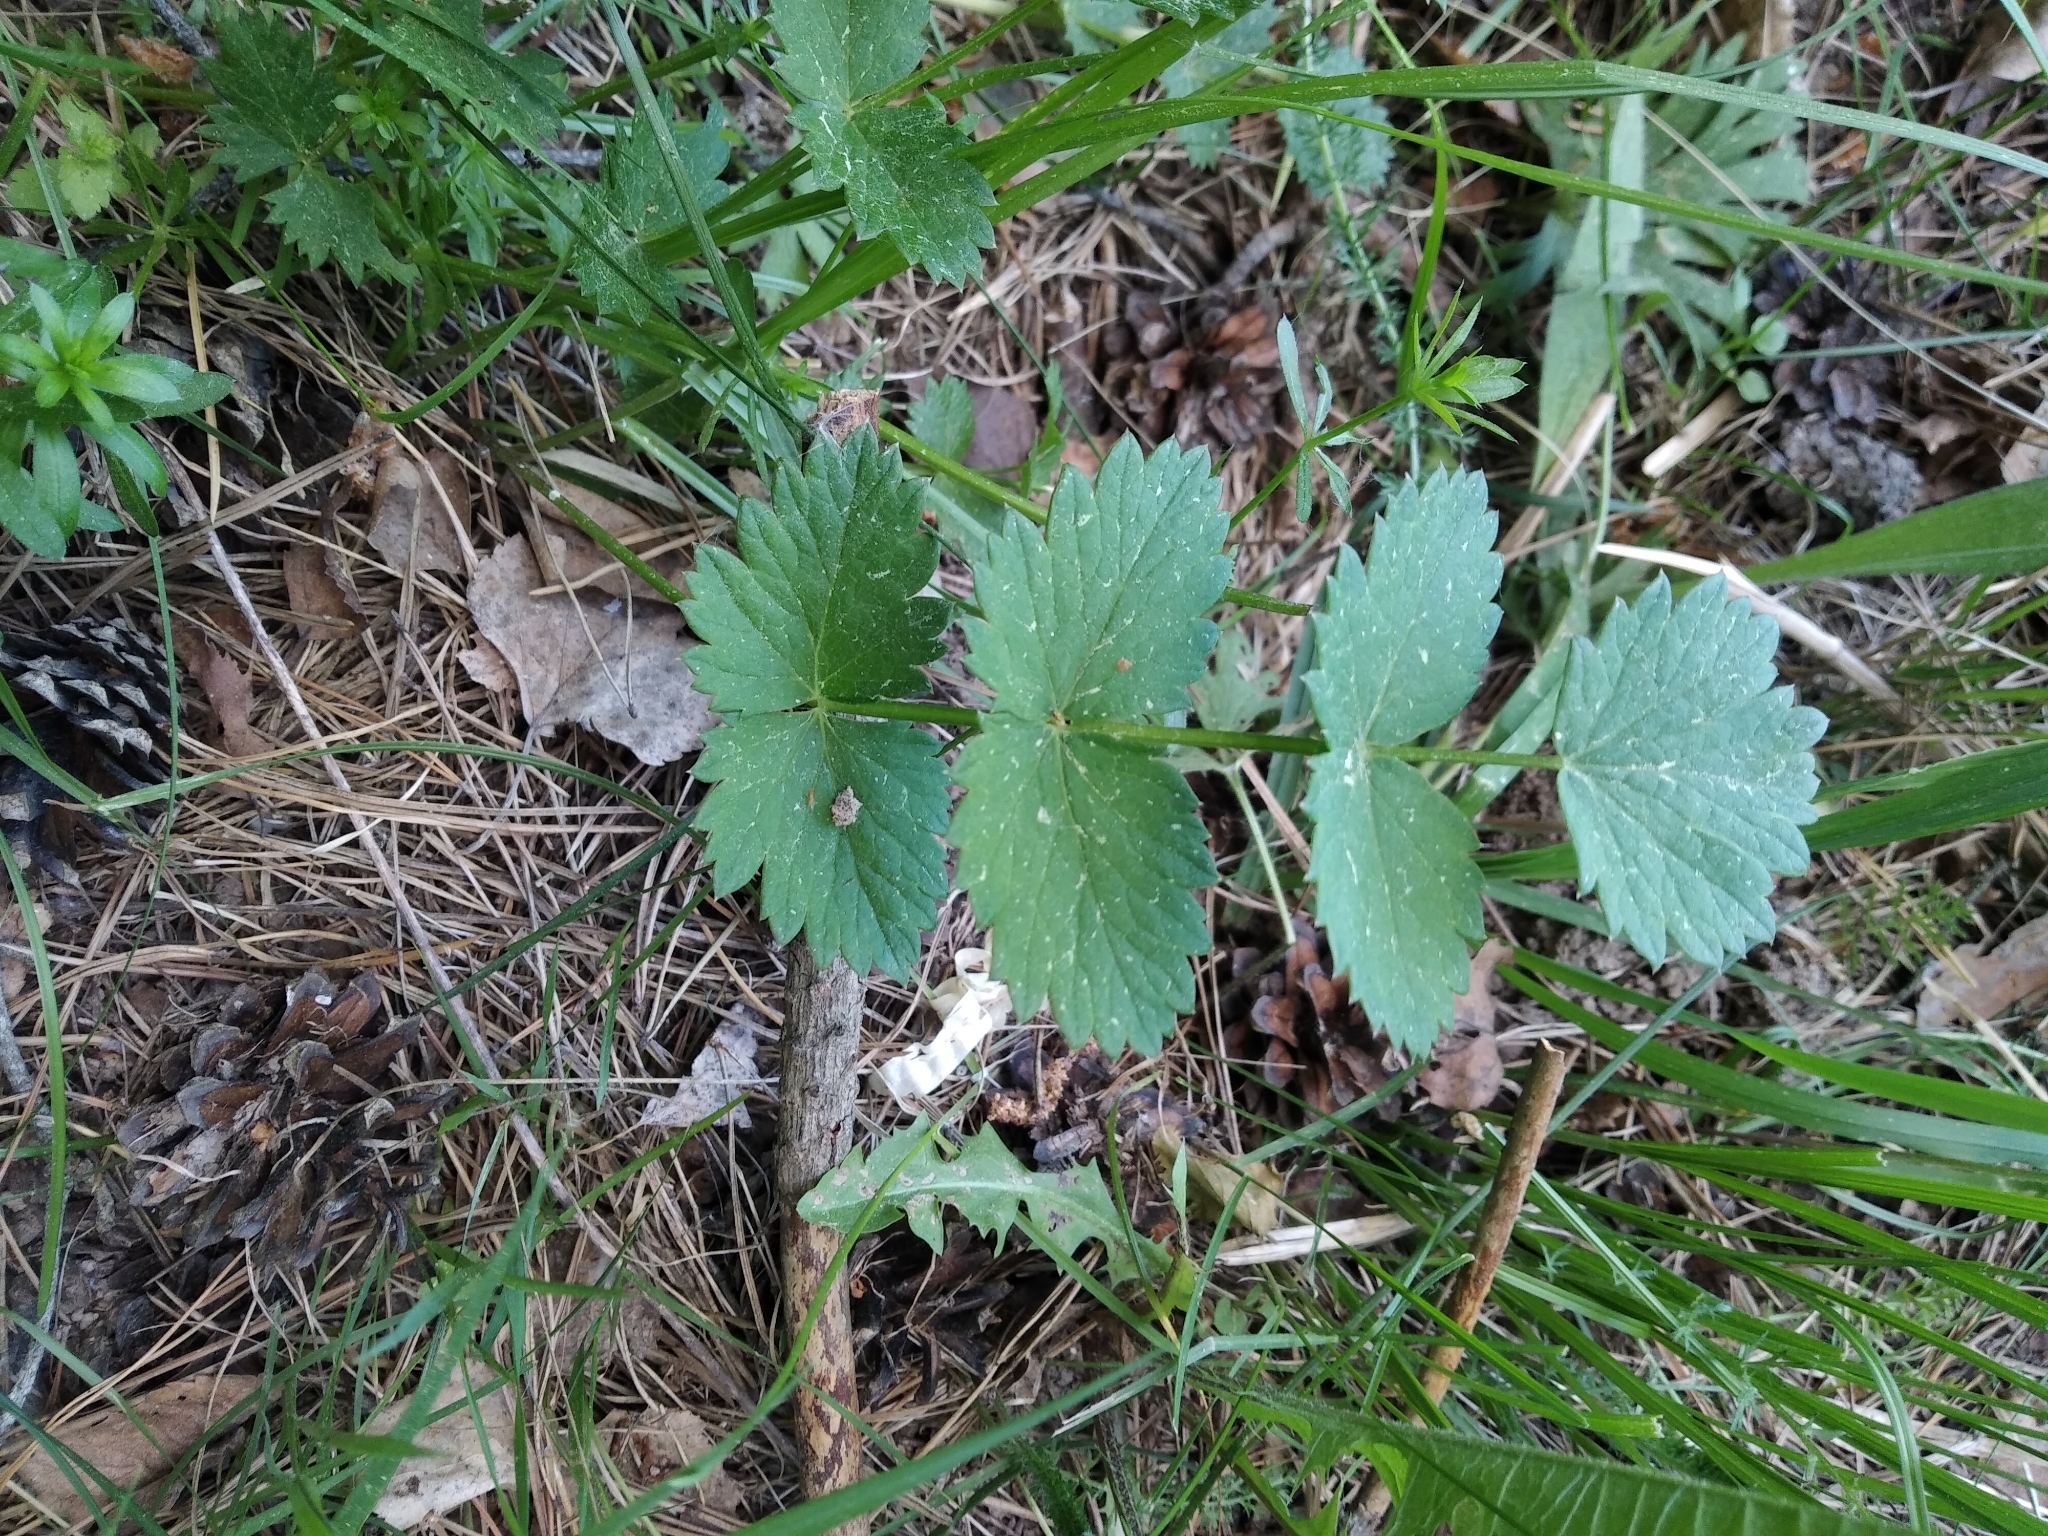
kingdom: Plantae
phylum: Tracheophyta
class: Magnoliopsida
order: Apiales
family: Apiaceae
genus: Pimpinella
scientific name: Pimpinella saxifraga
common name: Burnet-saxifrage
